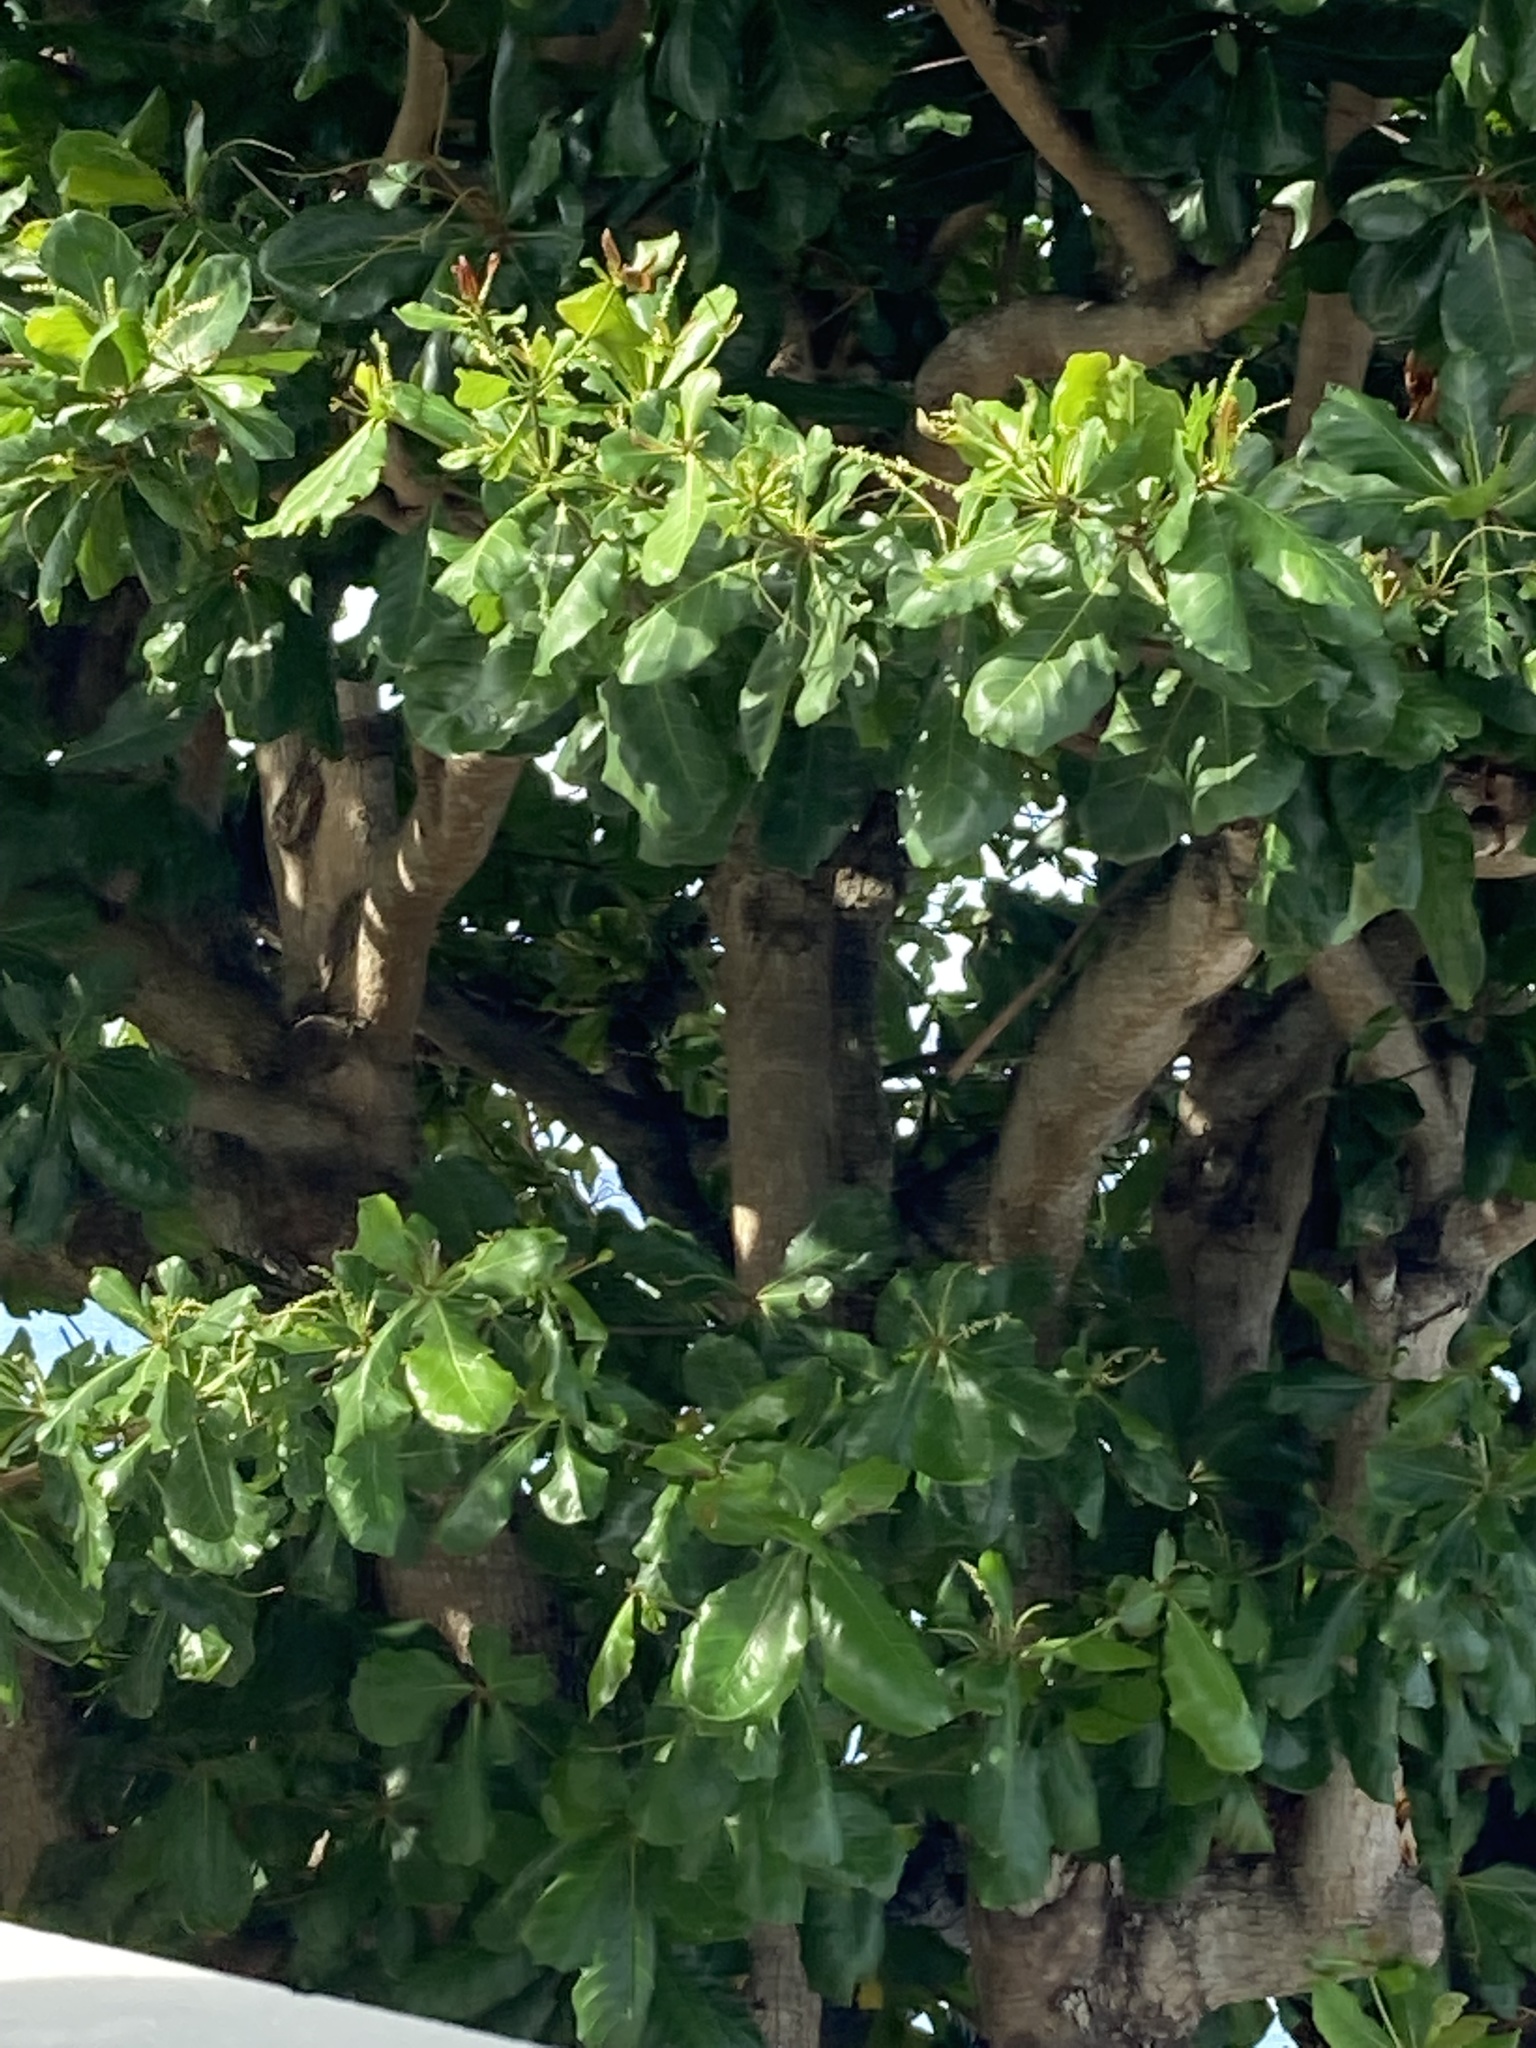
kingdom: Plantae
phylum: Tracheophyta
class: Magnoliopsida
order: Myrtales
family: Combretaceae
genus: Terminalia
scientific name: Terminalia catappa
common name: Tropical almond
